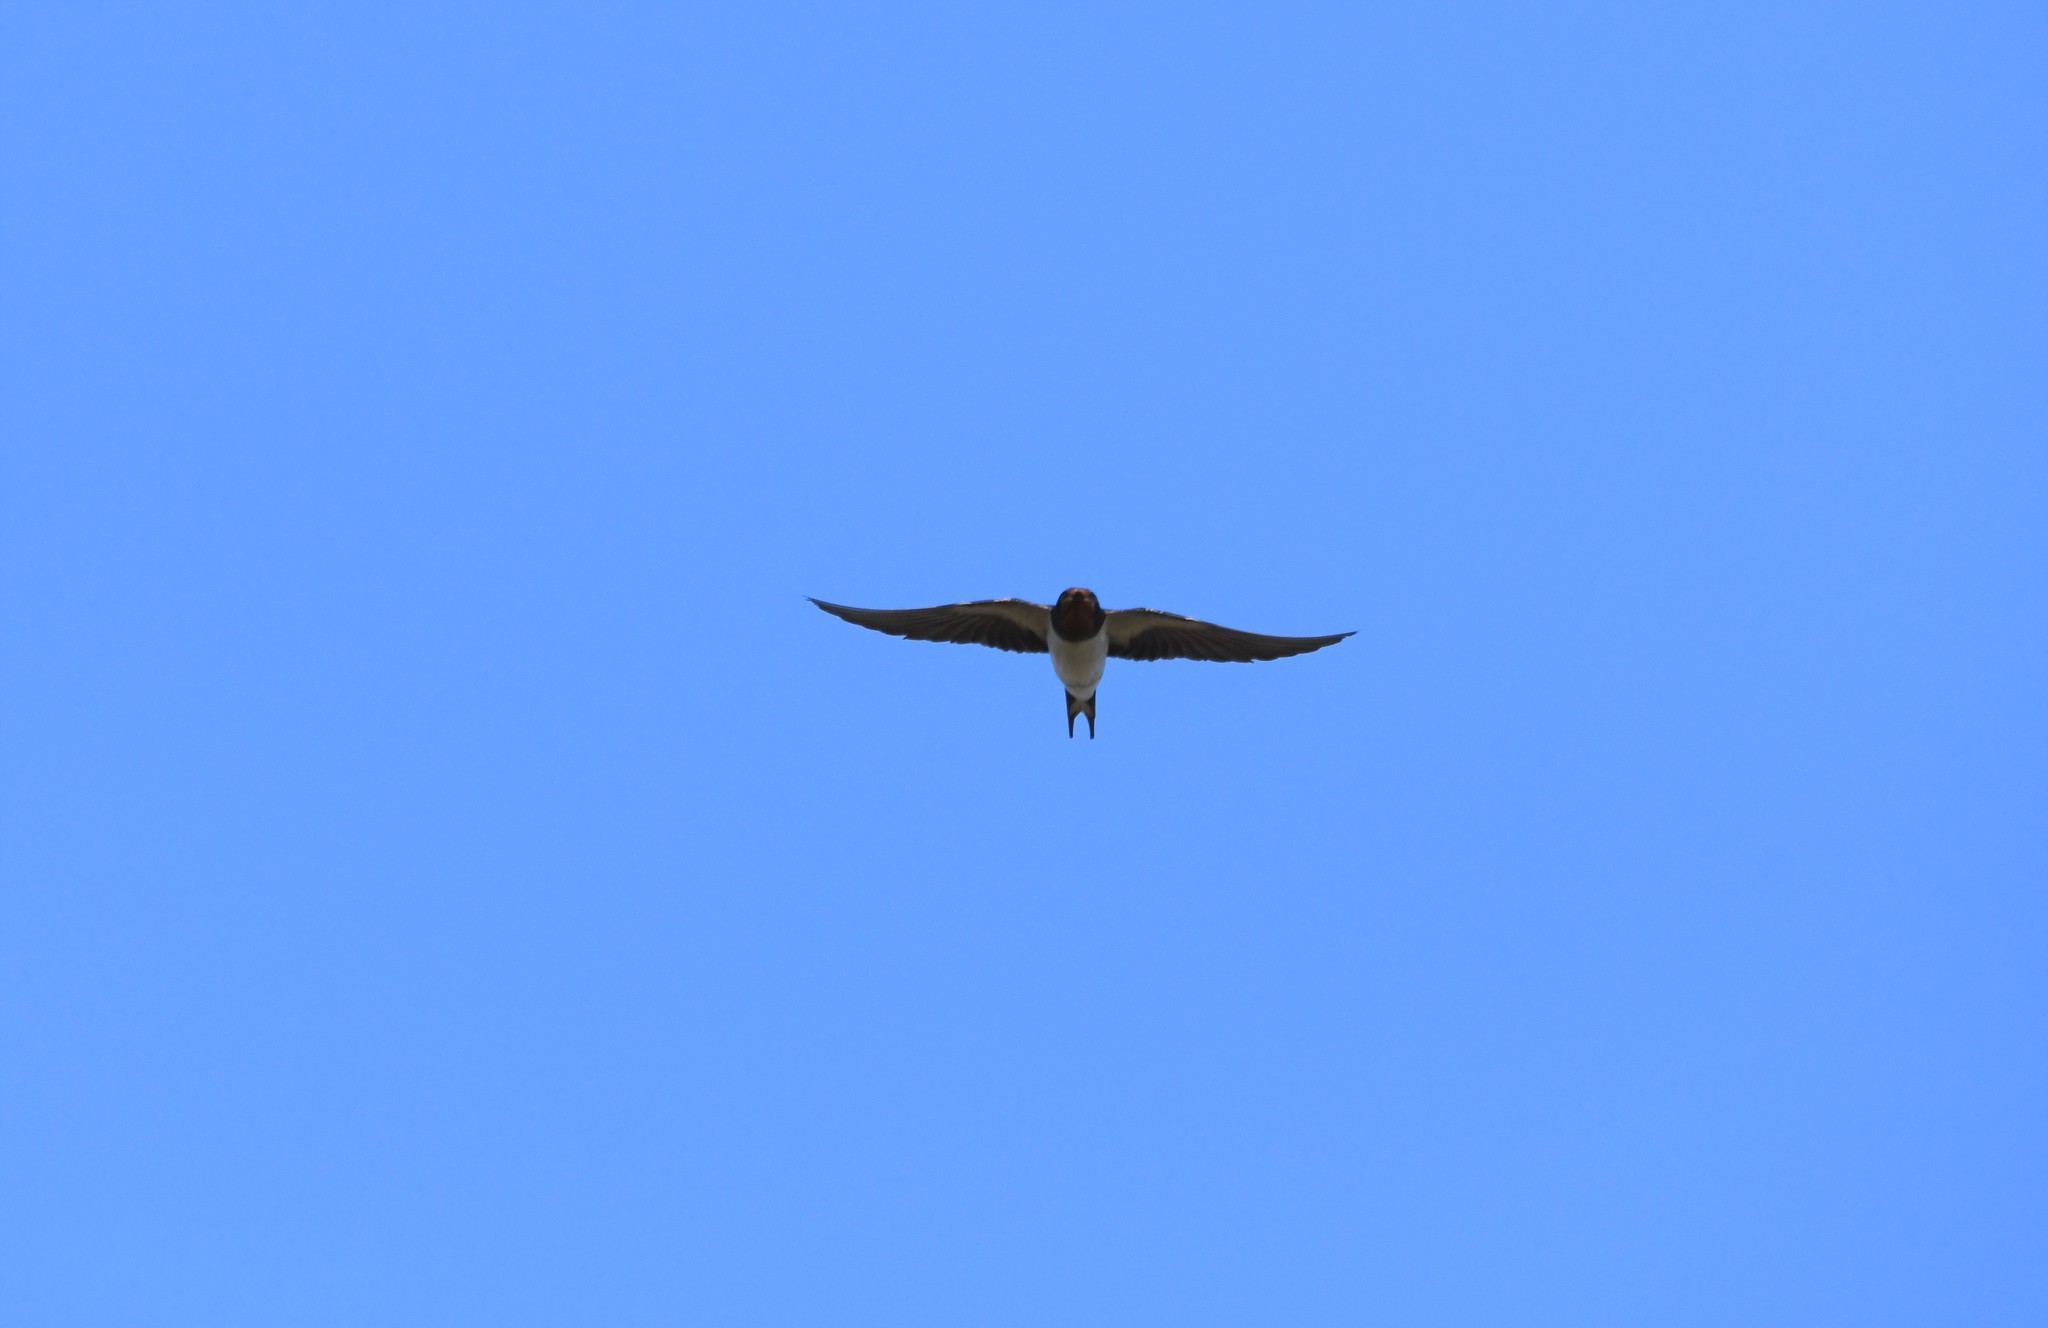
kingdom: Animalia
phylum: Chordata
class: Aves
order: Passeriformes
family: Hirundinidae
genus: Hirundo
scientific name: Hirundo rustica
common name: Barn swallow
